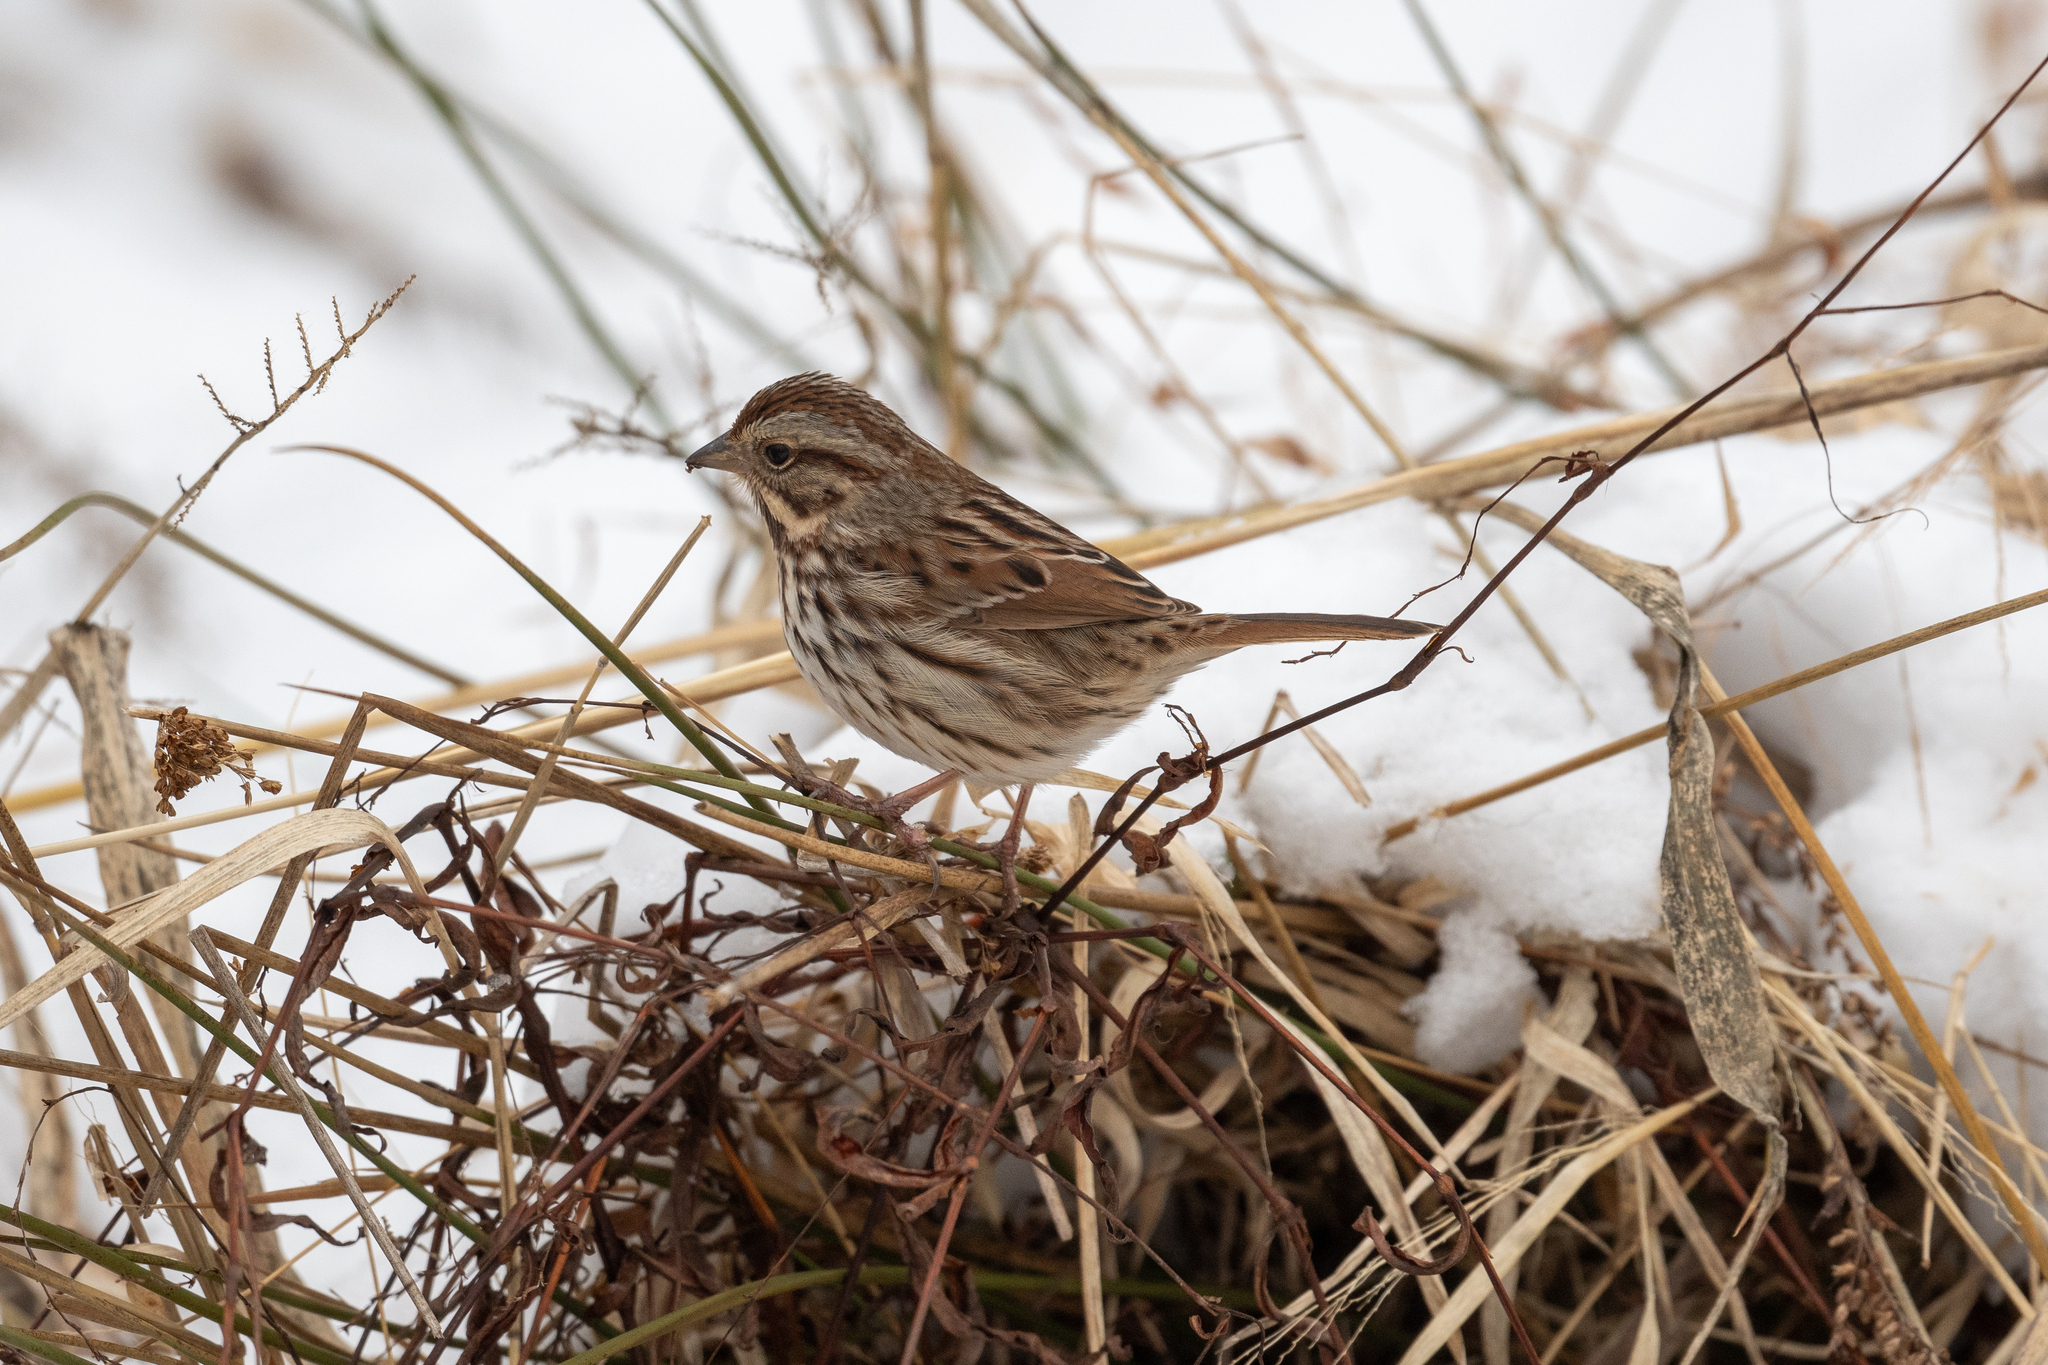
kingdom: Animalia
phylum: Chordata
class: Aves
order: Passeriformes
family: Passerellidae
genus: Melospiza
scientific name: Melospiza melodia
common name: Song sparrow
